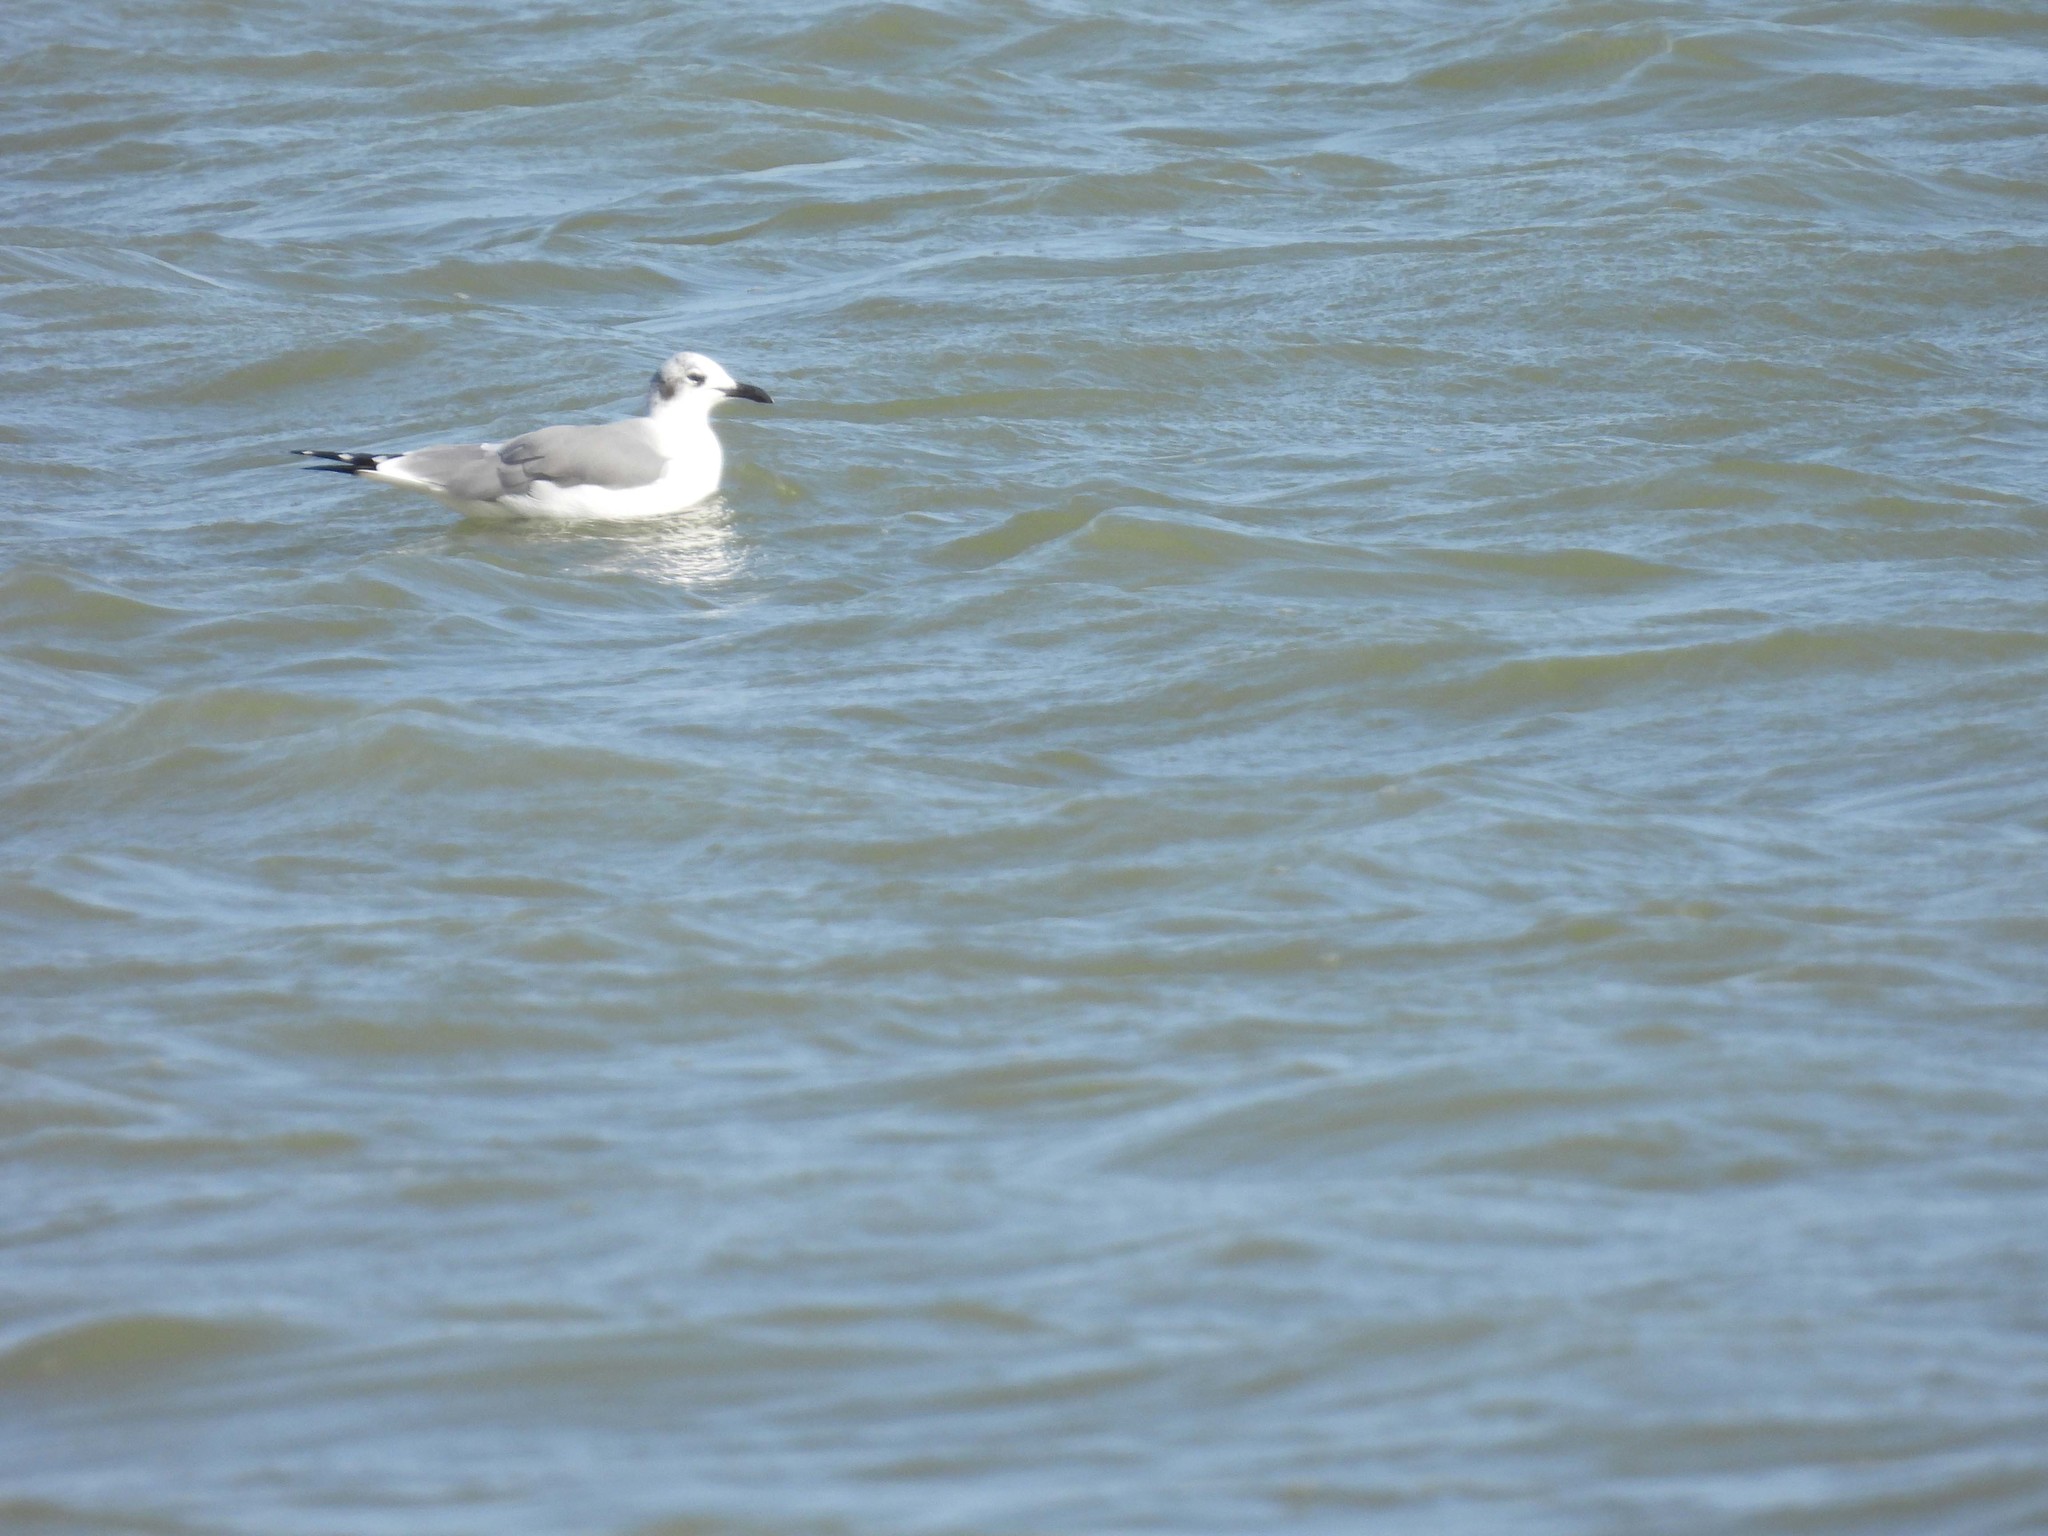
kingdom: Animalia
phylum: Chordata
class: Aves
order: Charadriiformes
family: Laridae
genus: Leucophaeus
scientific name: Leucophaeus atricilla
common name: Laughing gull
